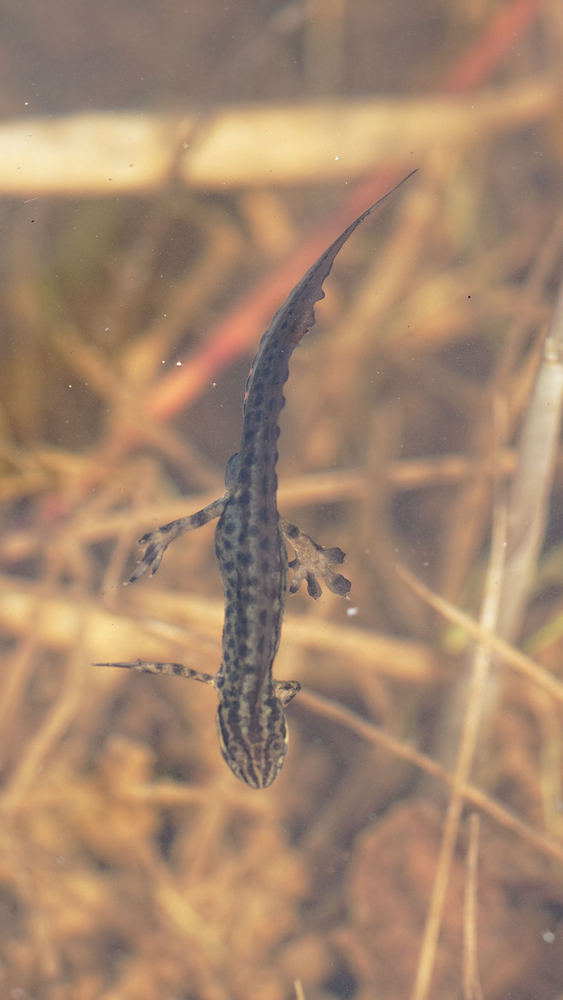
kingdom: Animalia
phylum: Chordata
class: Amphibia
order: Caudata
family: Salamandridae
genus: Lissotriton
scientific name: Lissotriton vulgaris
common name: Smooth newt
